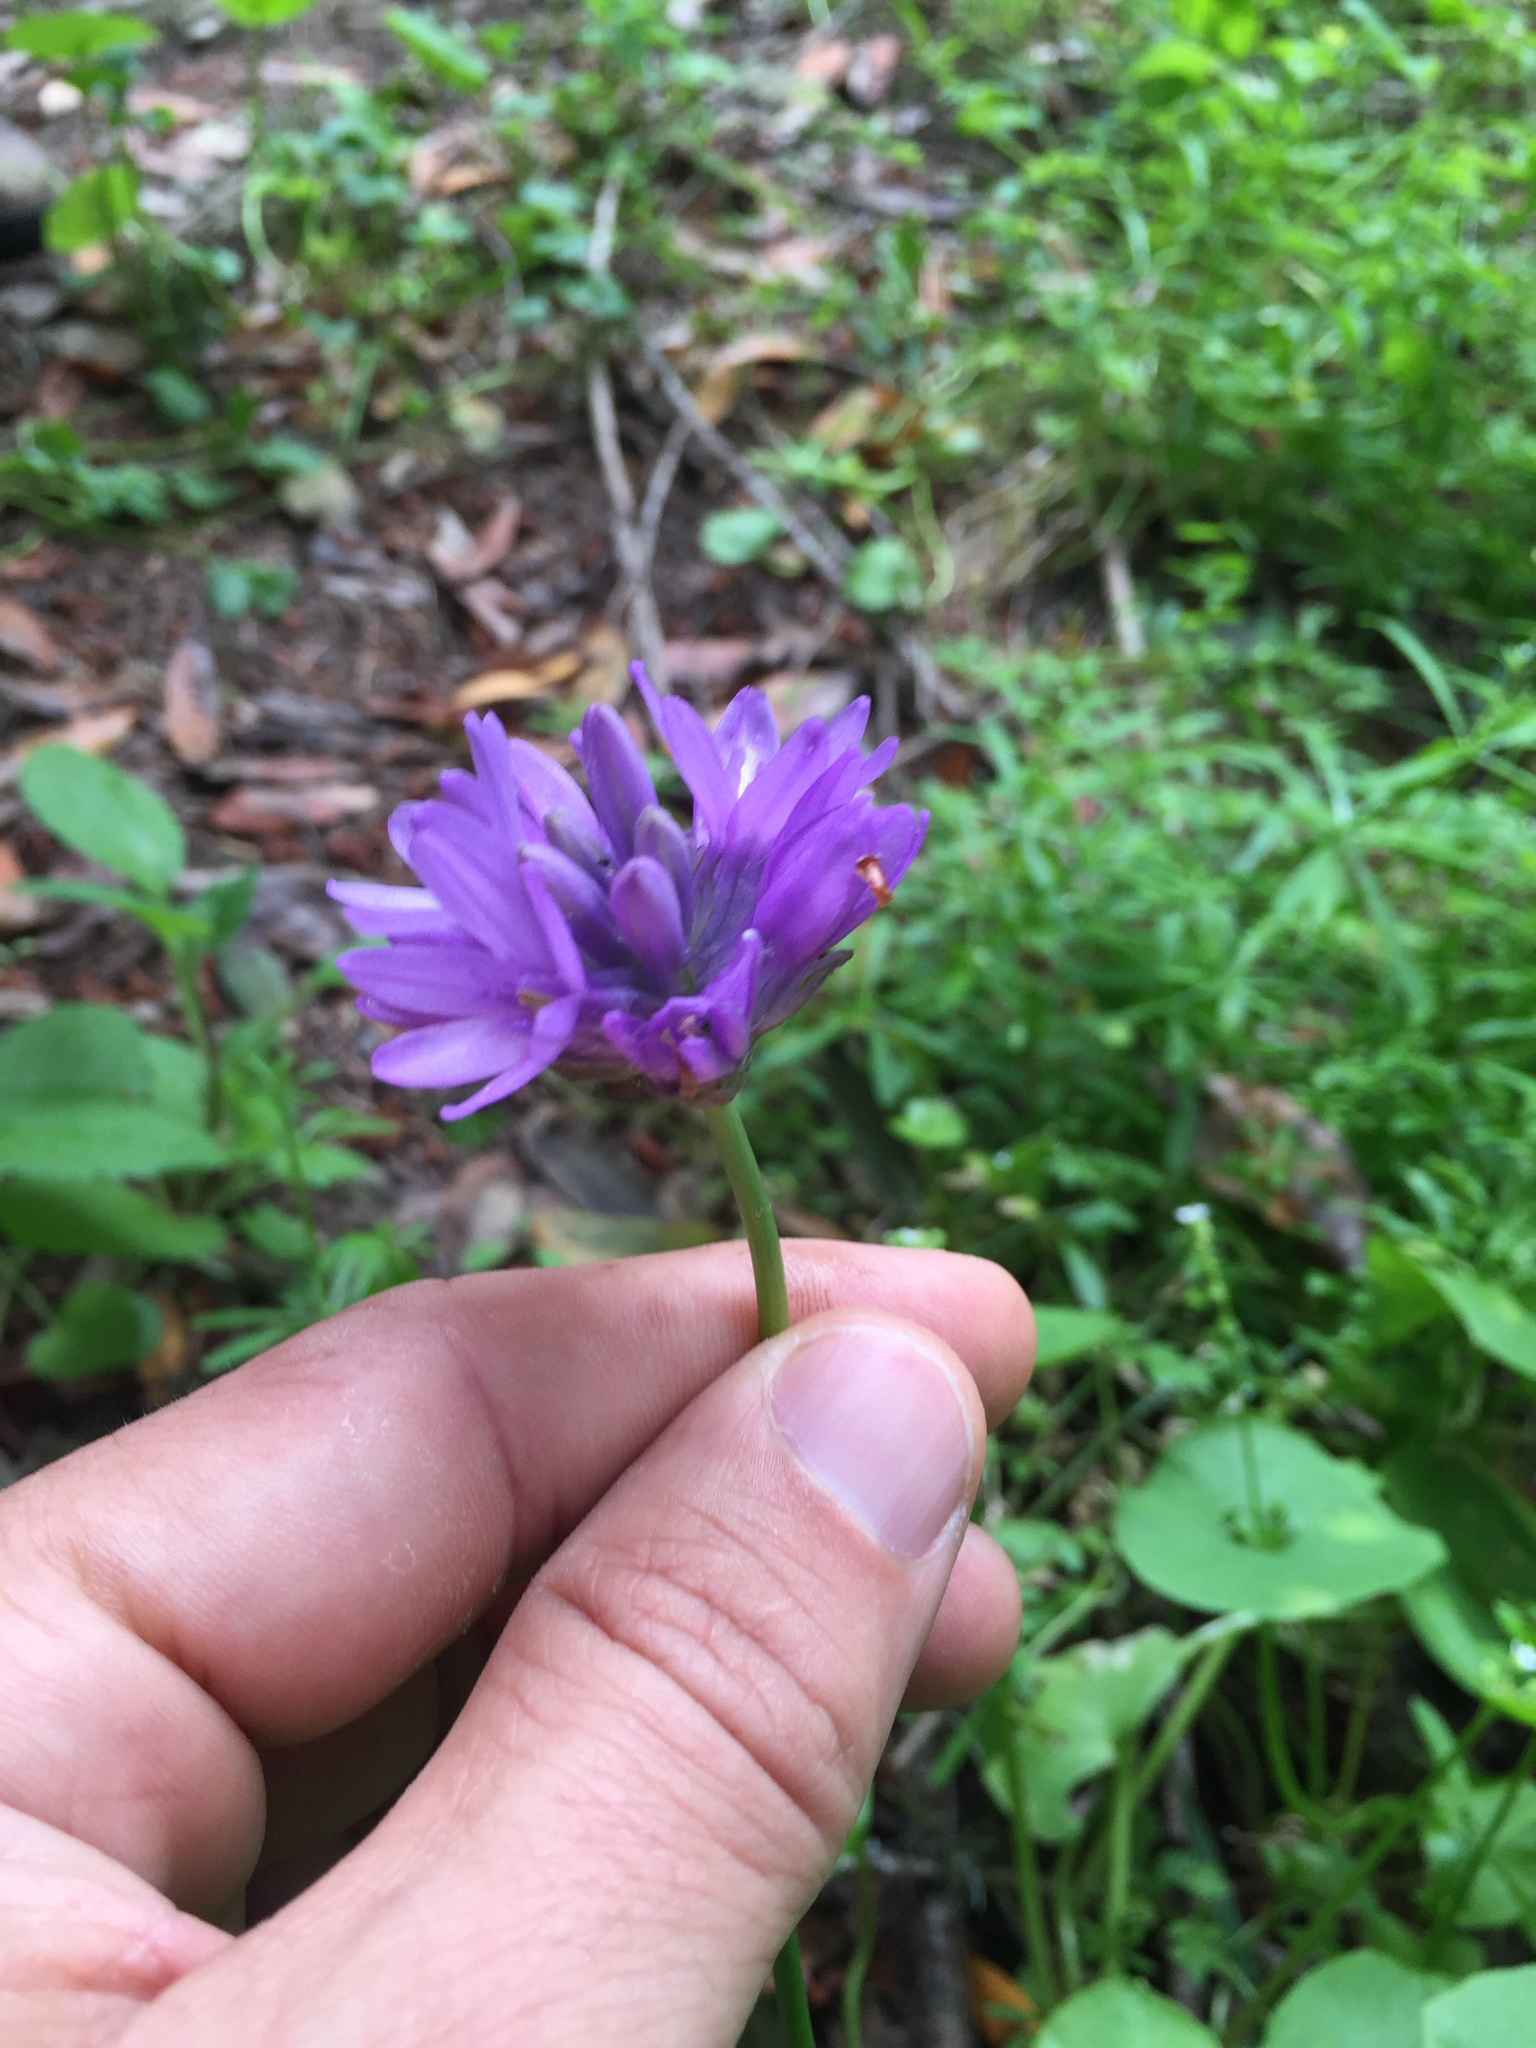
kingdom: Plantae
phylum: Tracheophyta
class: Liliopsida
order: Asparagales
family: Asparagaceae
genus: Dichelostemma
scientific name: Dichelostemma congestum
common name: Fork-tooth ookow
